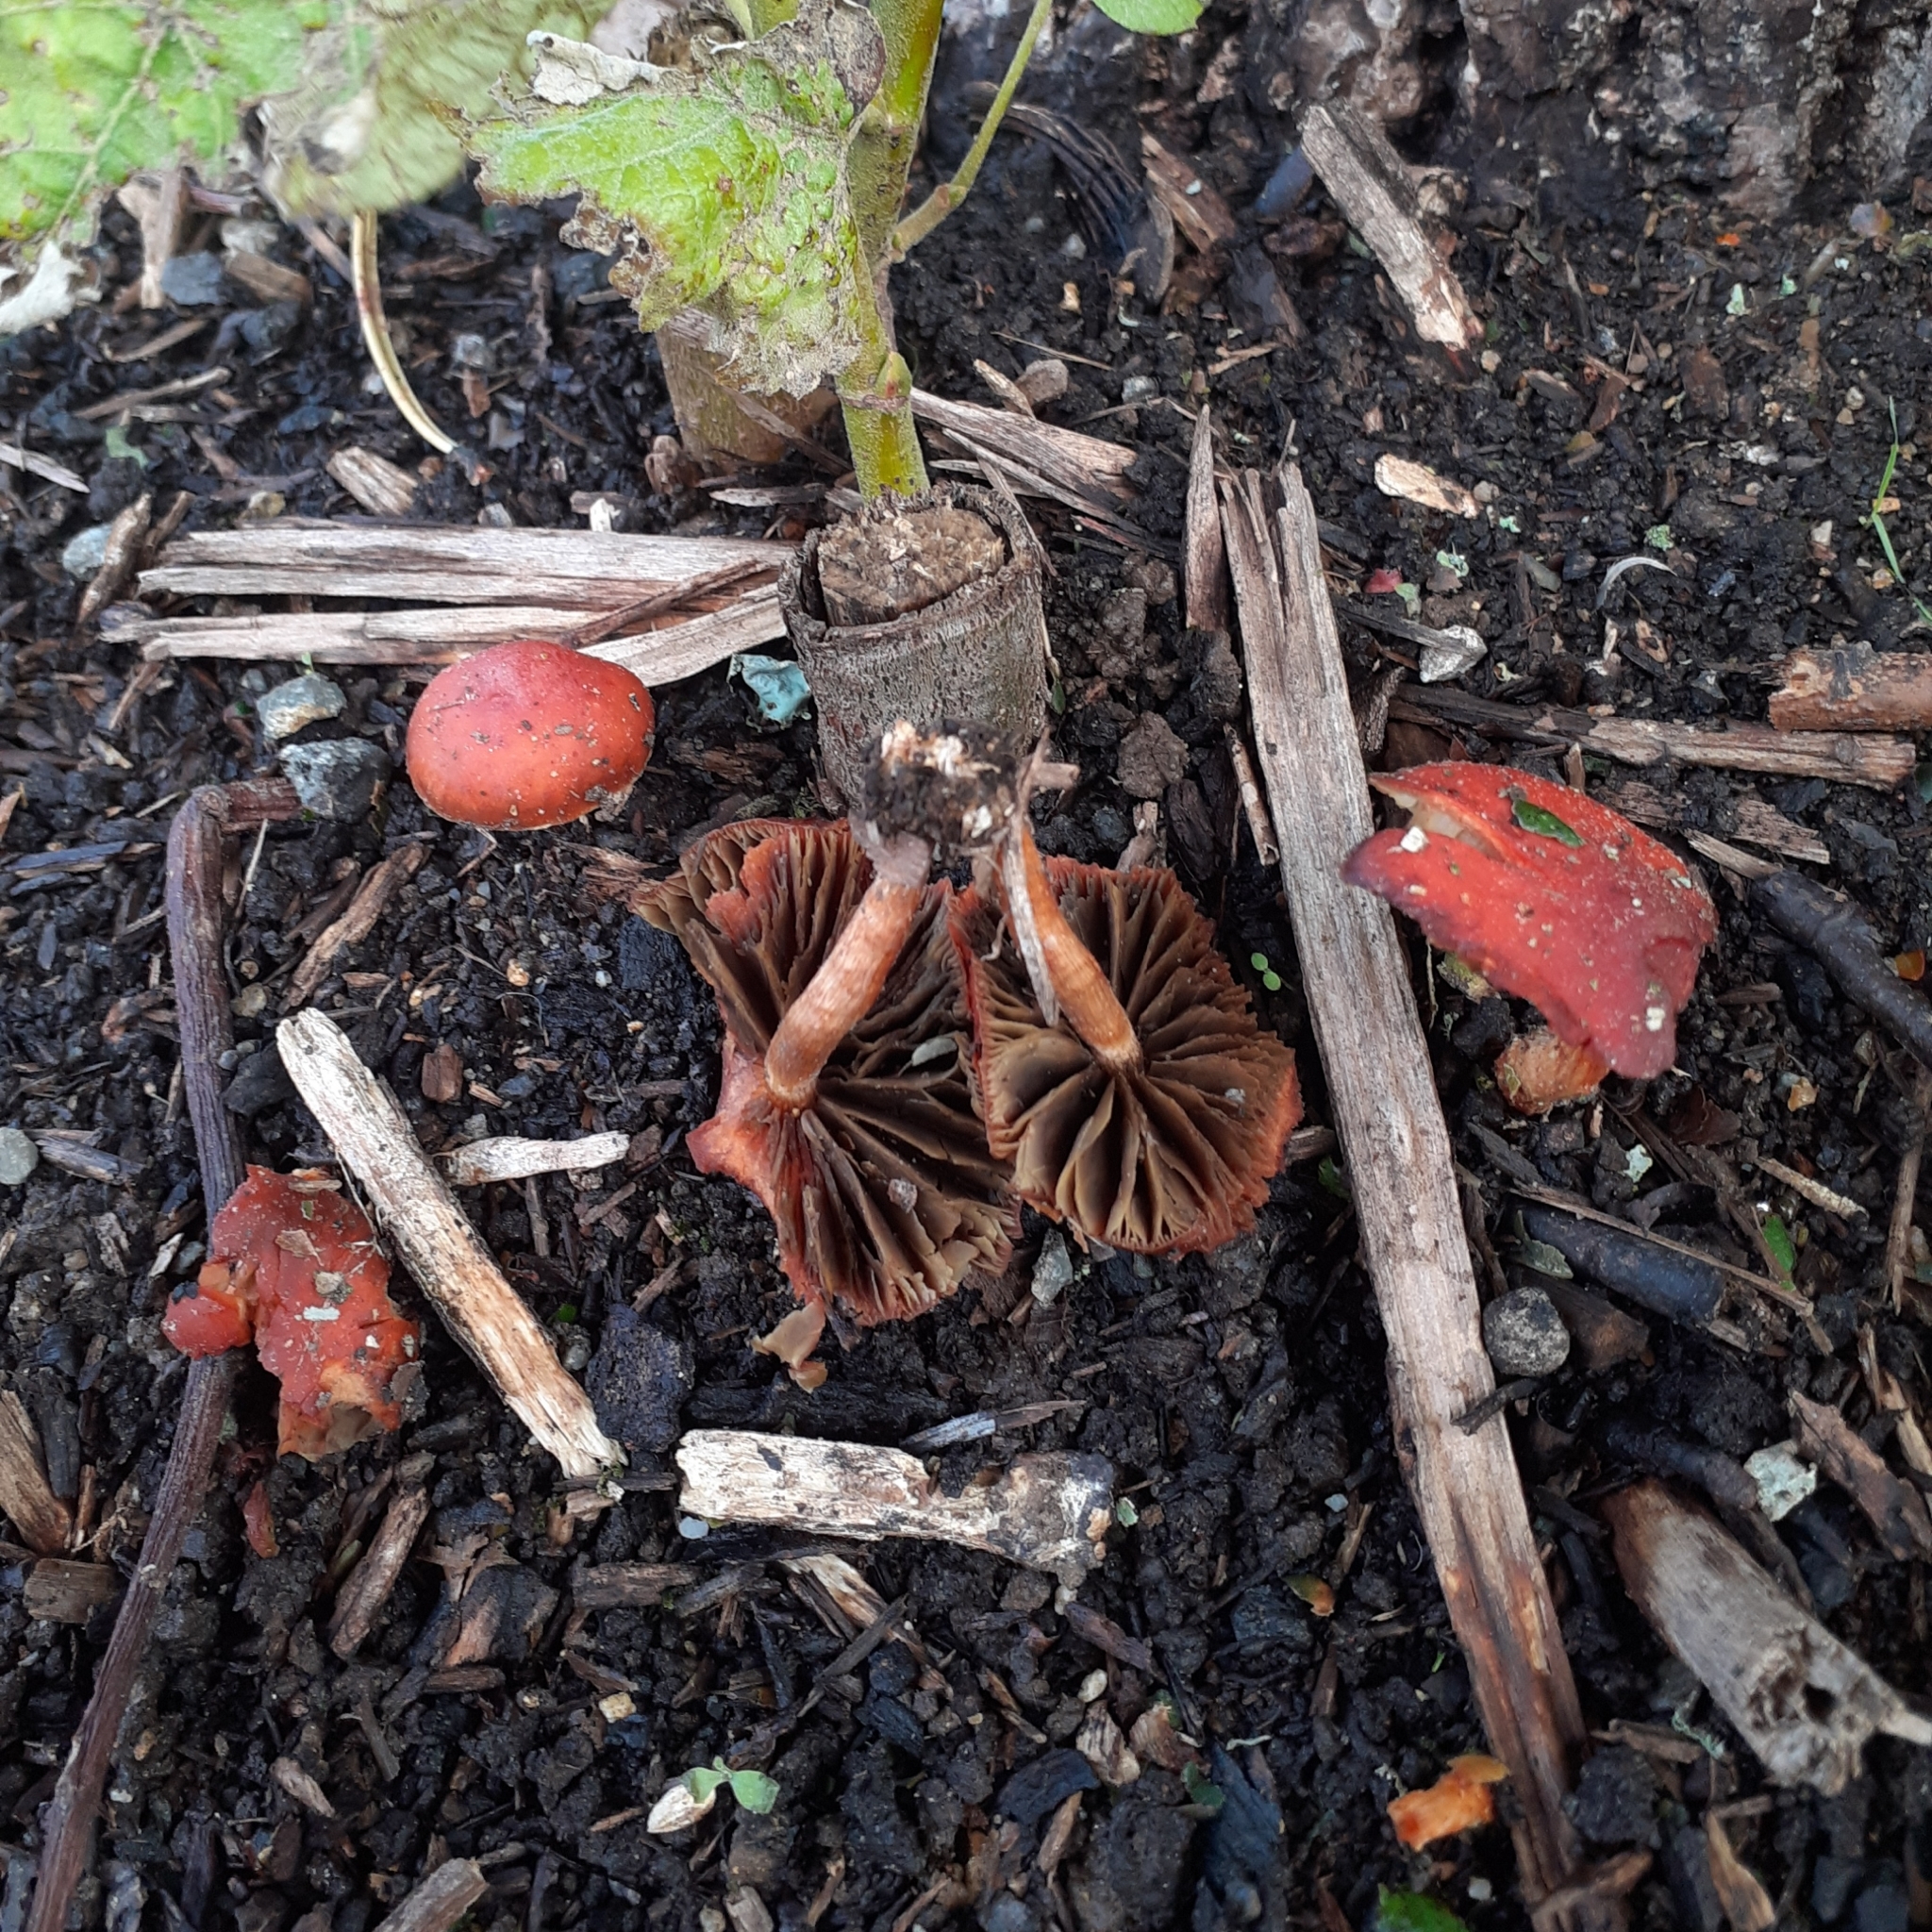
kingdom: Fungi
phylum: Basidiomycota
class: Agaricomycetes
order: Agaricales
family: Strophariaceae
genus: Leratiomyces
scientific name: Leratiomyces ceres
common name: Redlead roundhead
